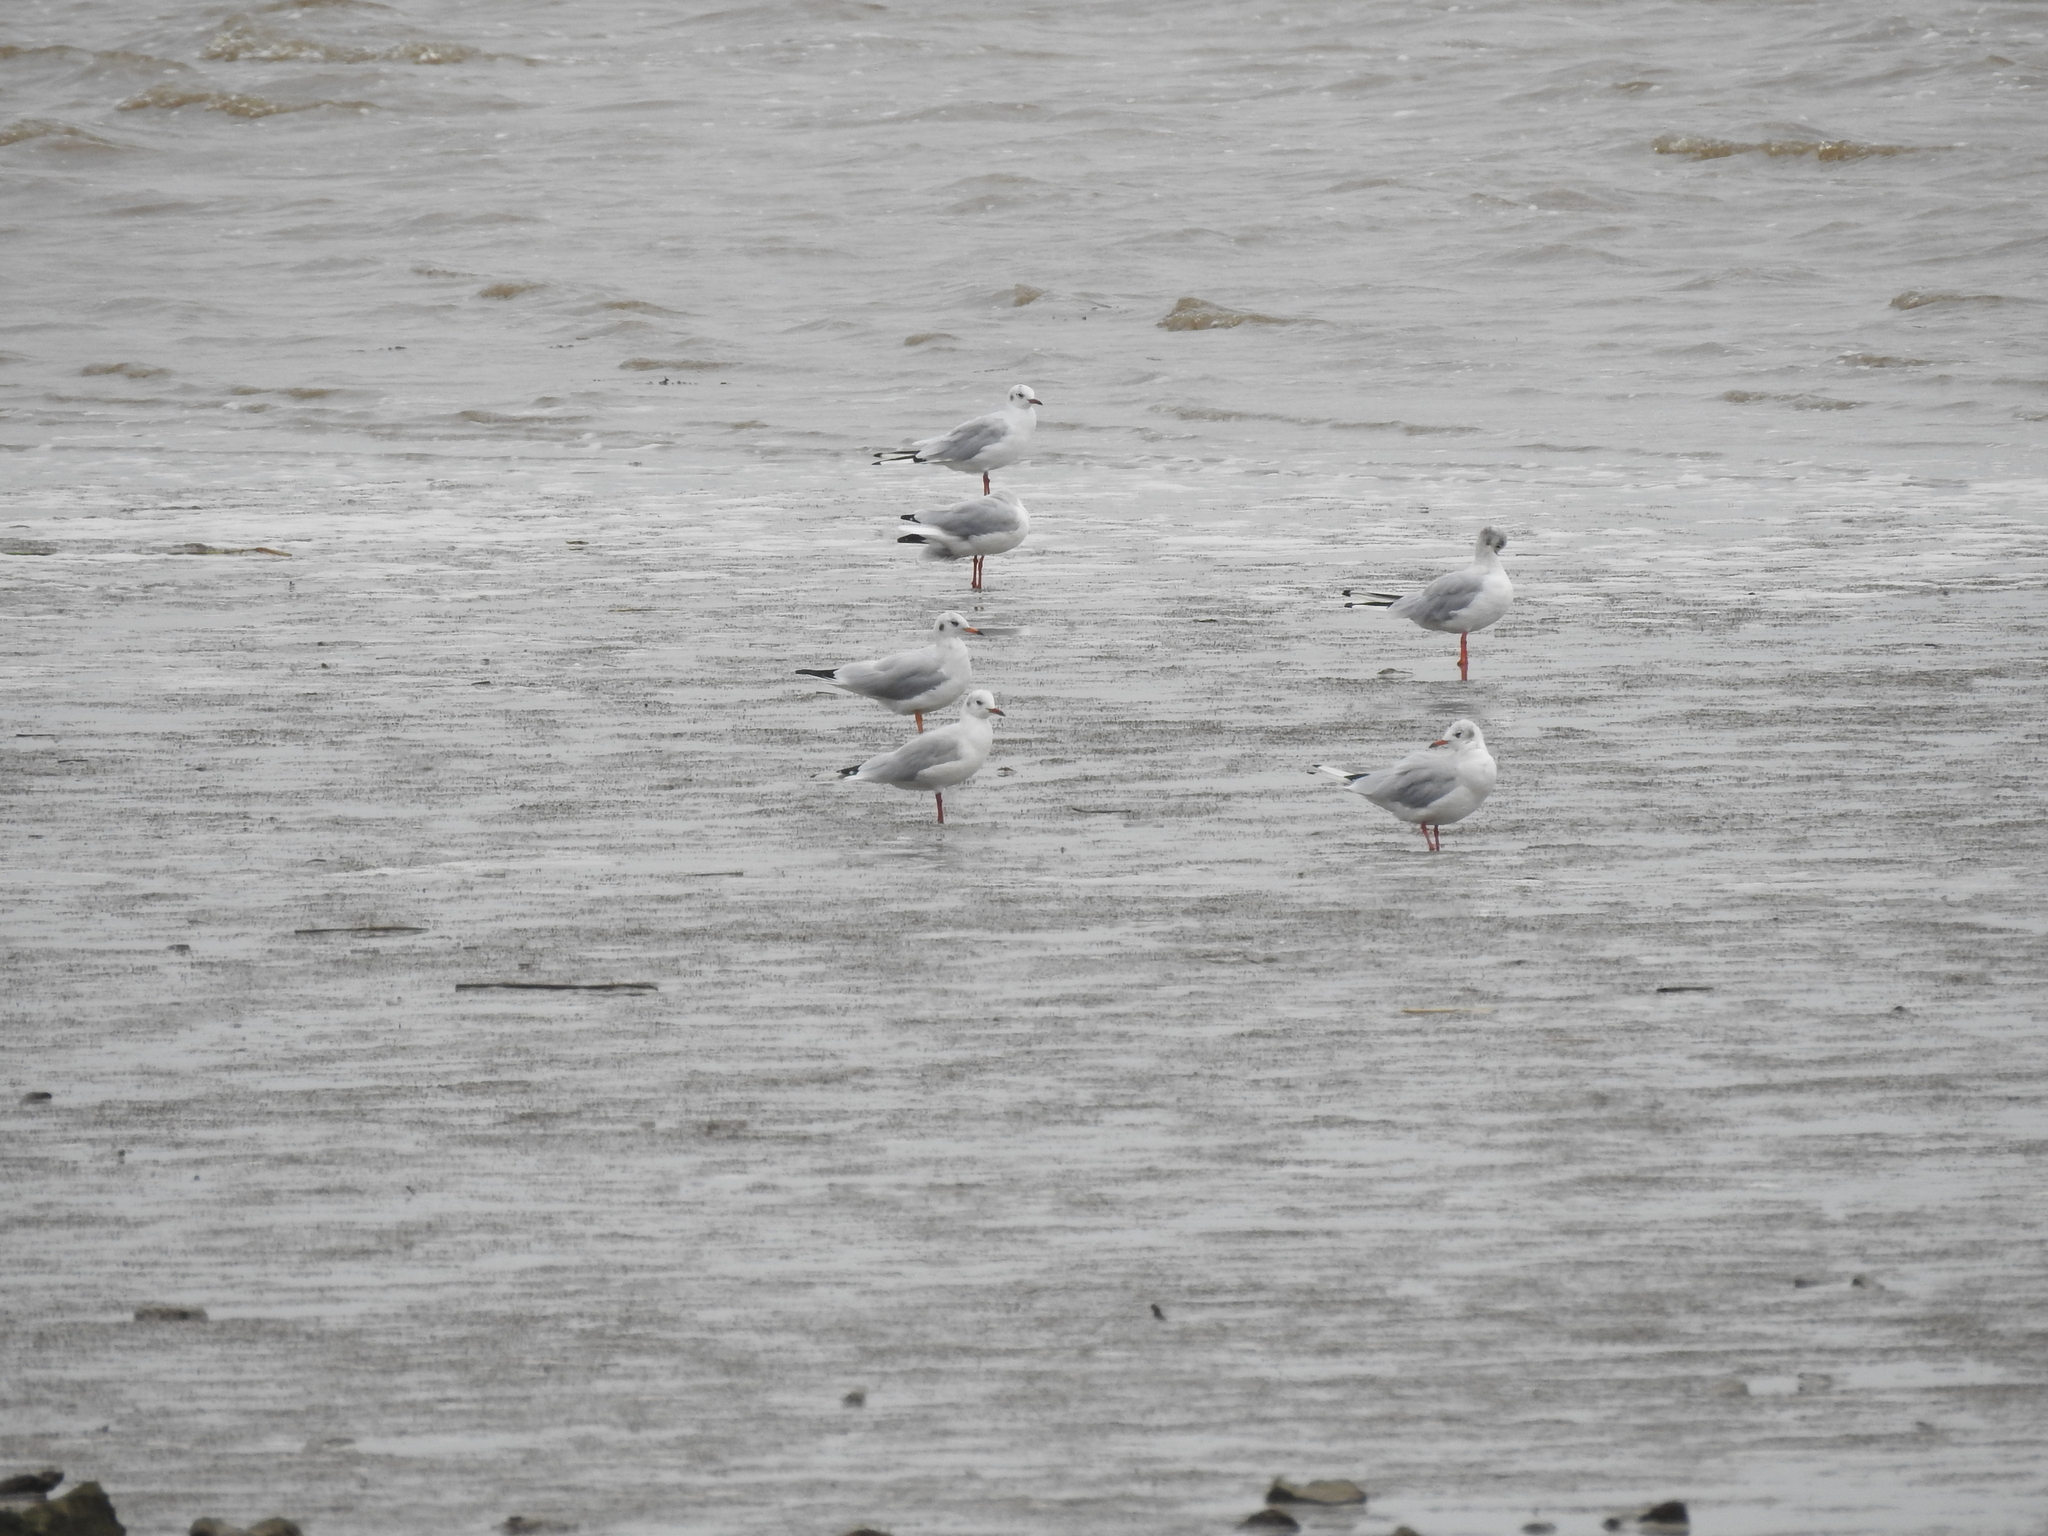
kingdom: Animalia
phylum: Chordata
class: Aves
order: Charadriiformes
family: Laridae
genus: Chroicocephalus
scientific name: Chroicocephalus ridibundus
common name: Black-headed gull
